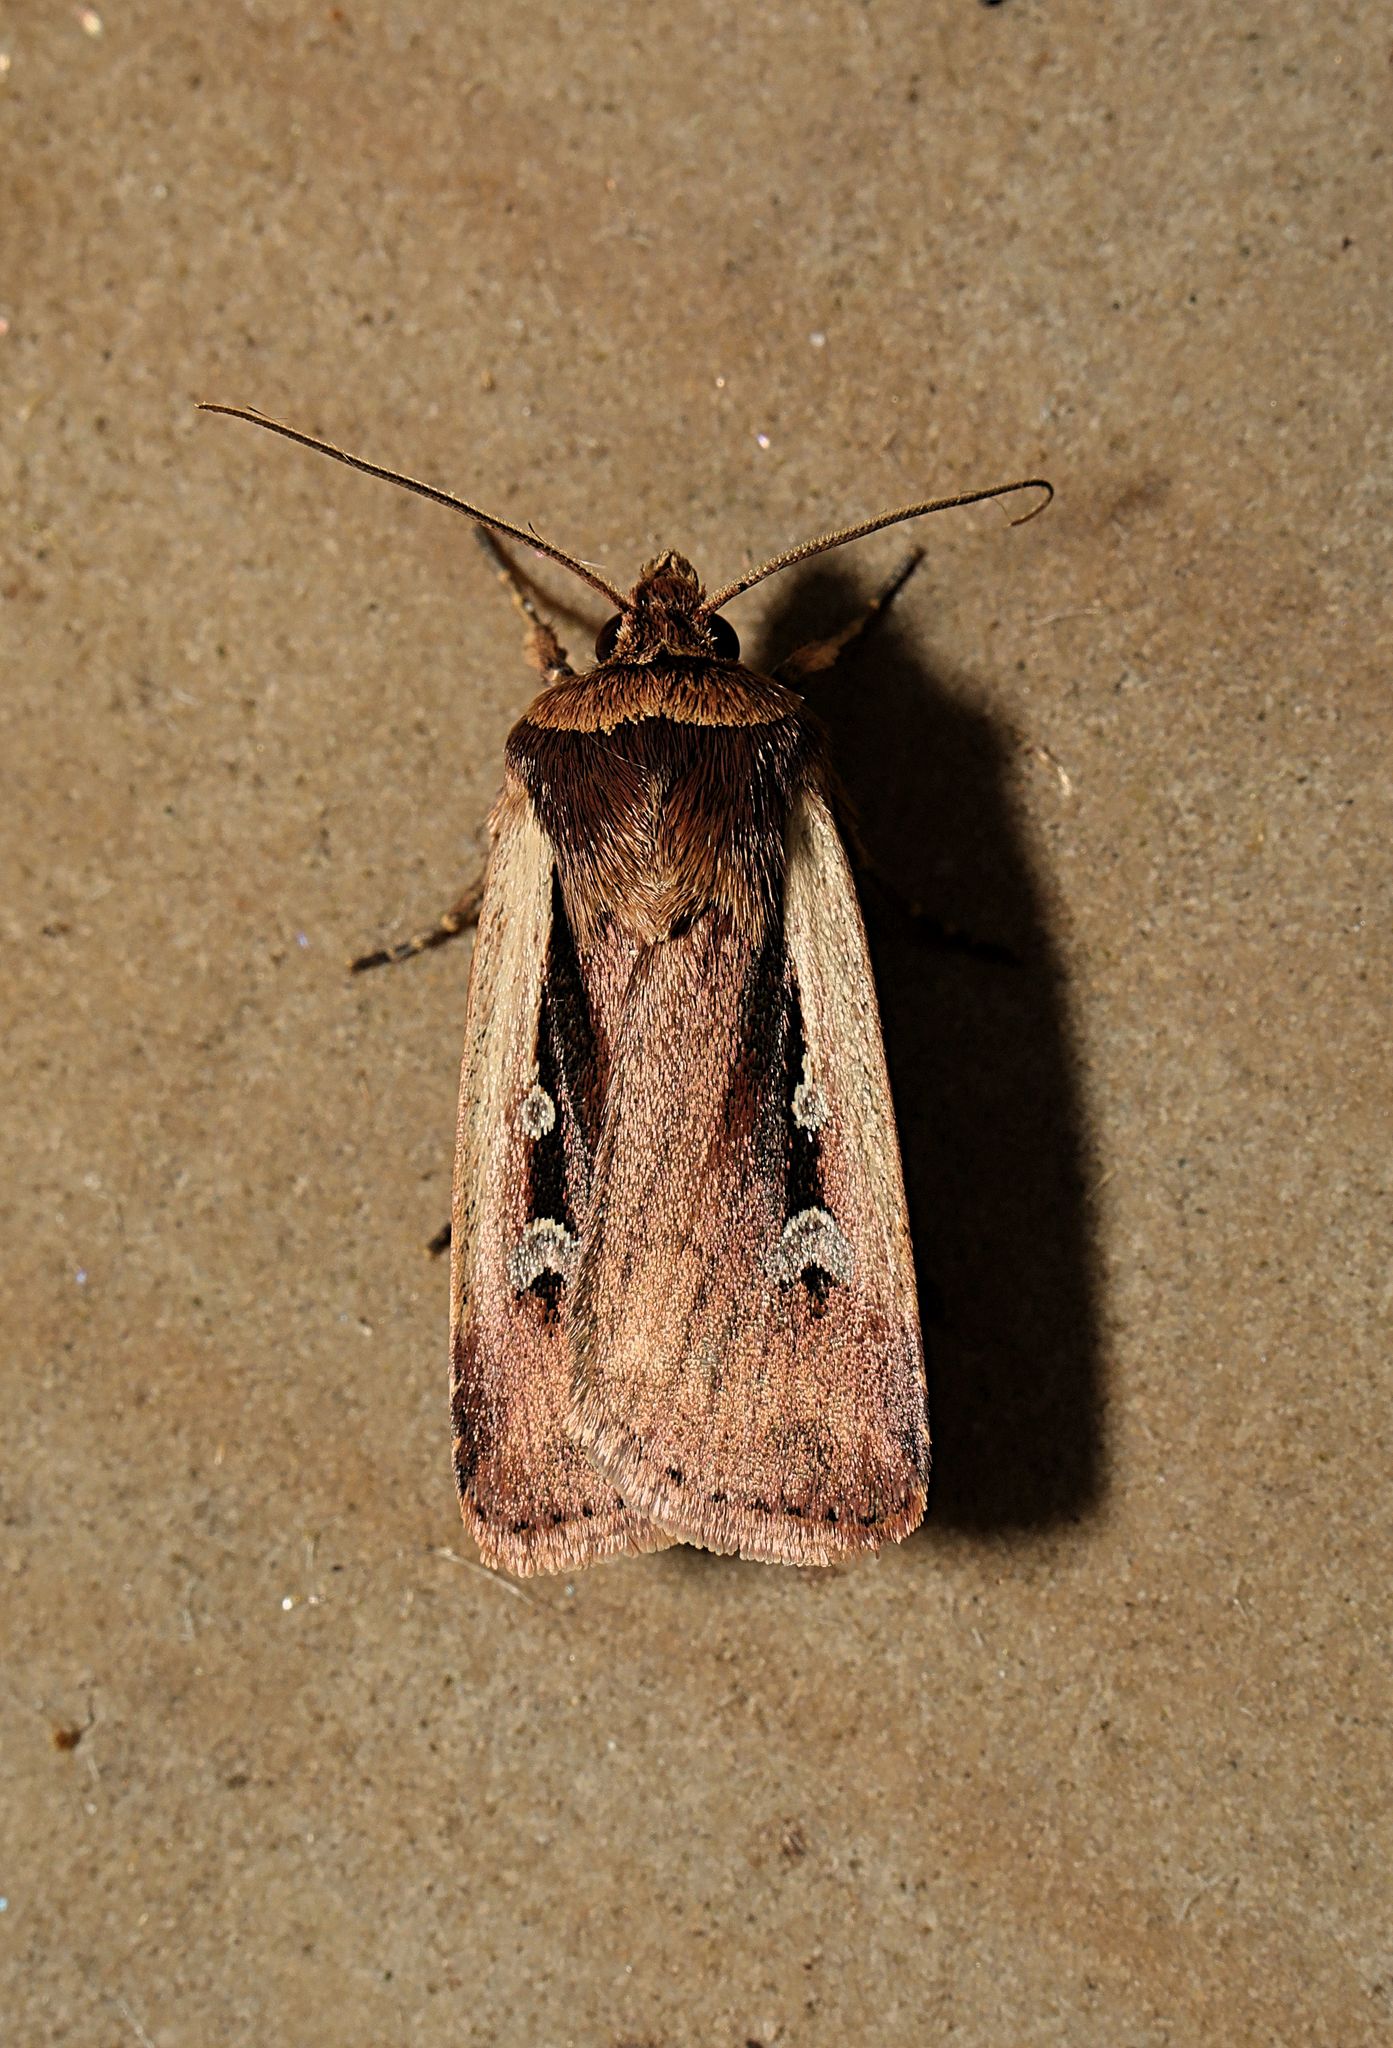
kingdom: Animalia
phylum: Arthropoda
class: Insecta
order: Lepidoptera
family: Noctuidae
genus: Ochropleura
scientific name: Ochropleura plecta
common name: Flame shoulder
